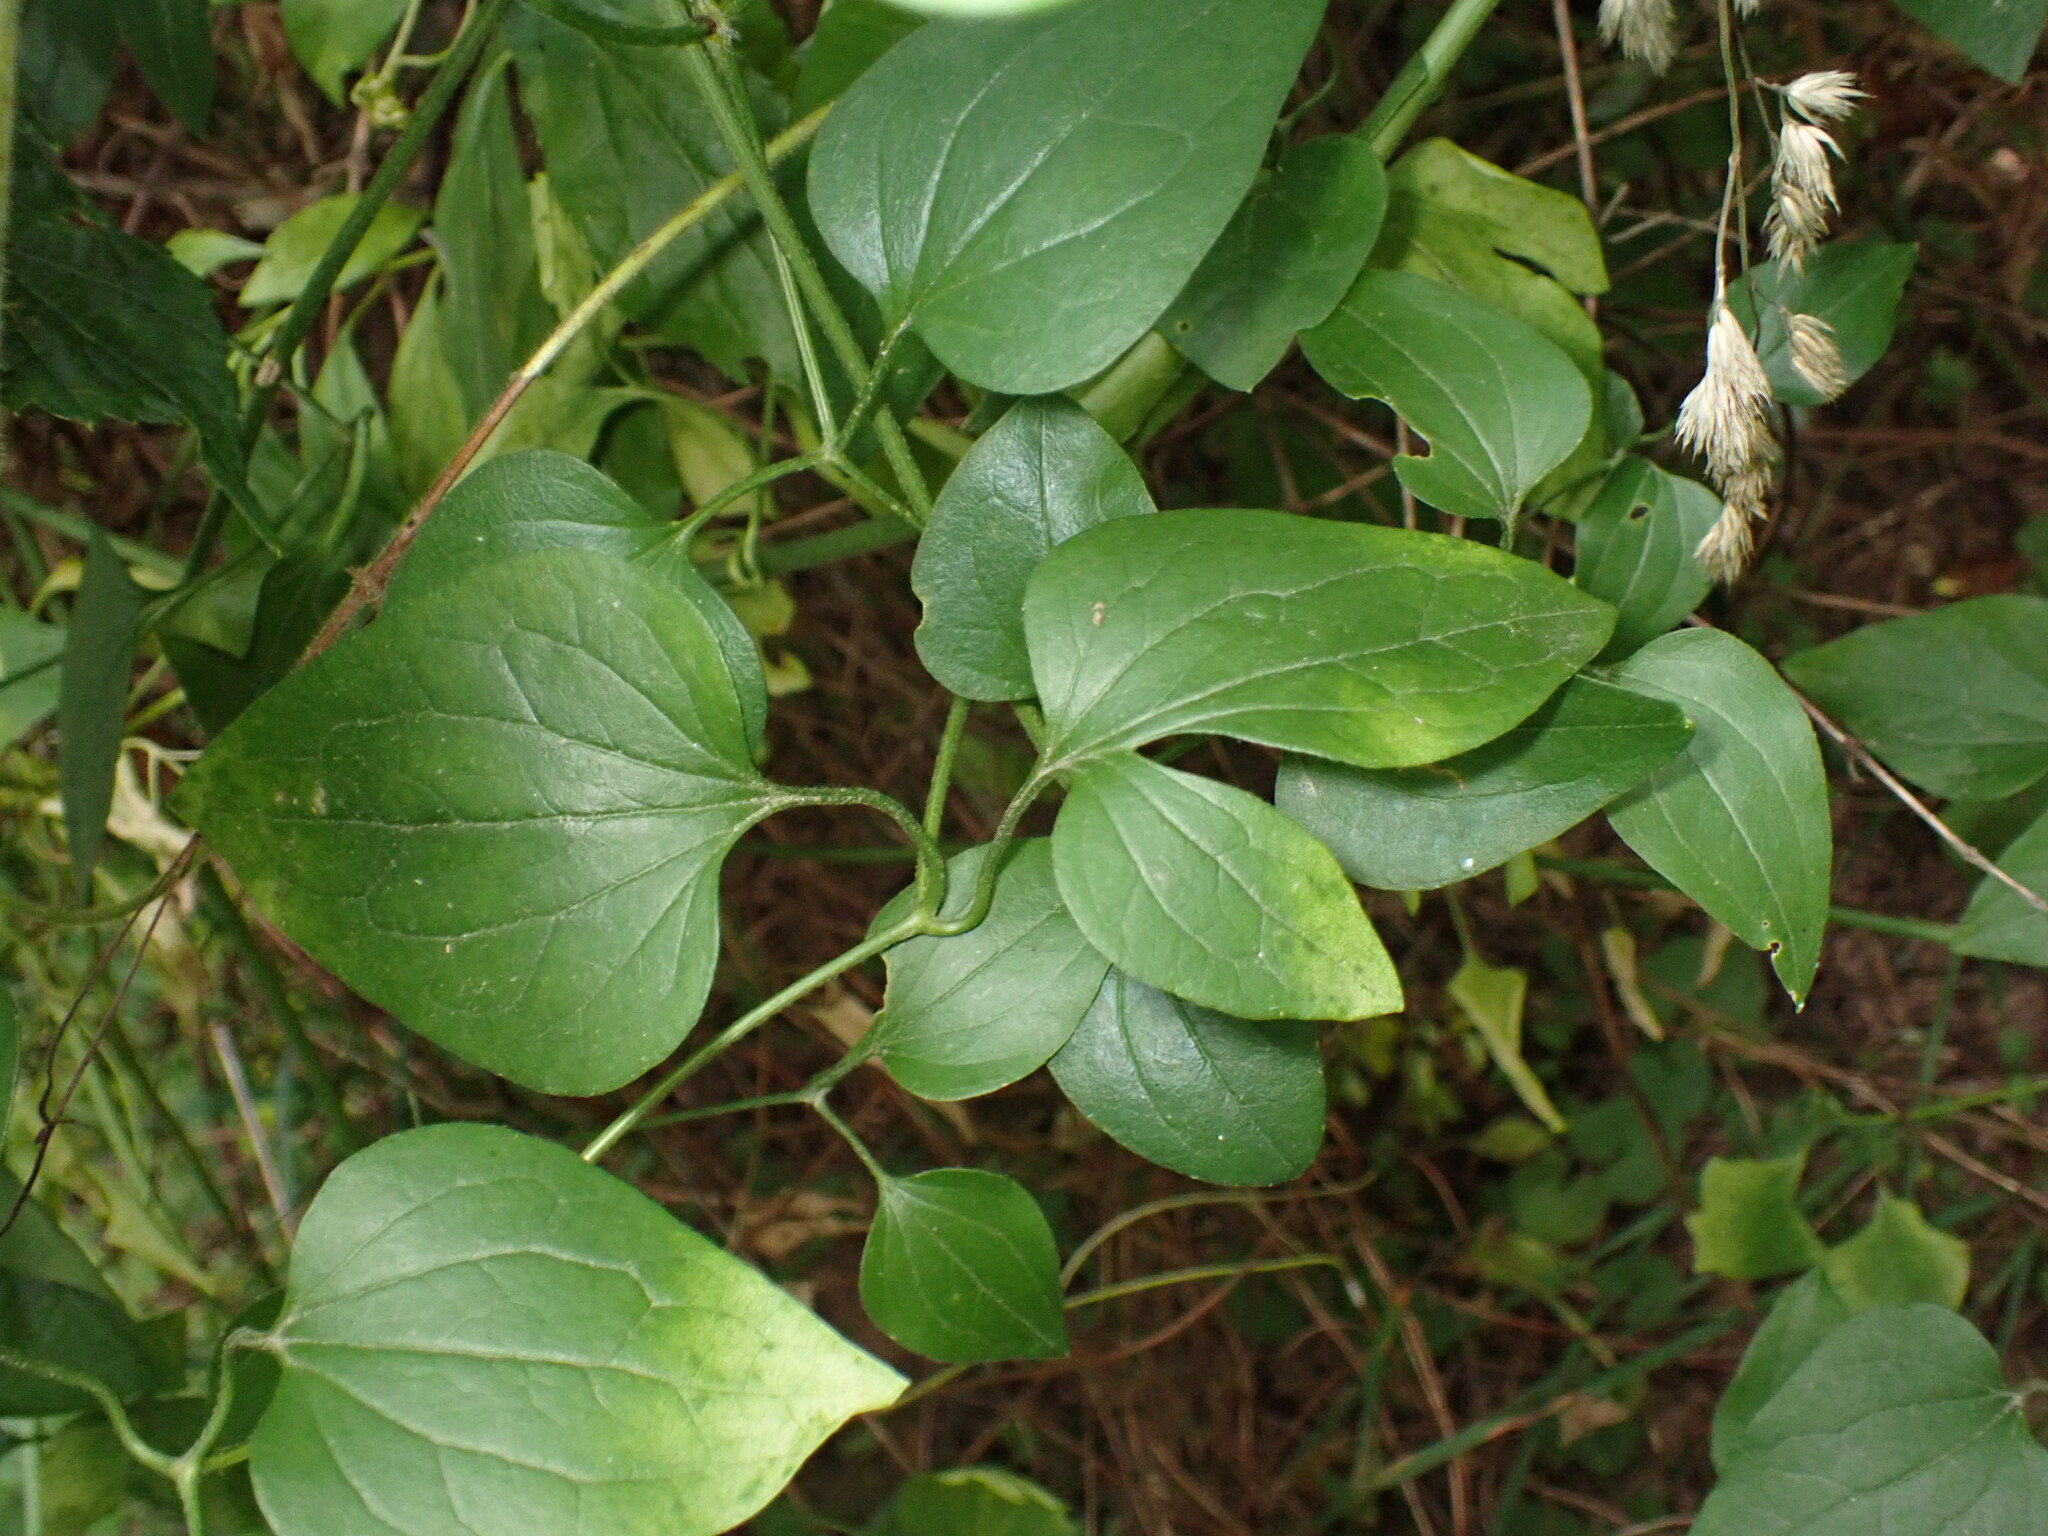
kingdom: Plantae
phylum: Tracheophyta
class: Magnoliopsida
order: Ranunculales
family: Ranunculaceae
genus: Clematis
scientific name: Clematis terniflora
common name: Sweet autumn clematis
